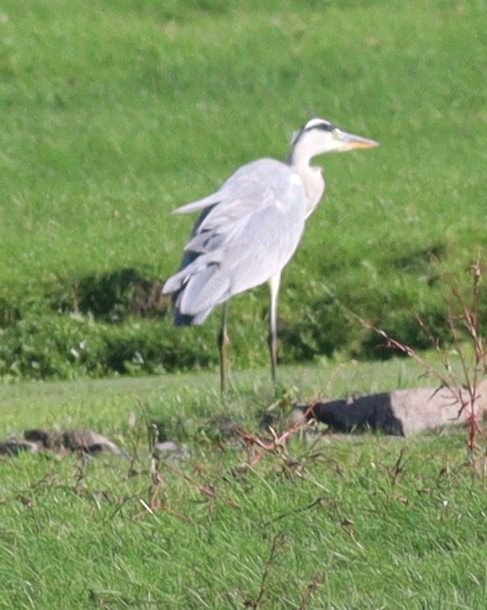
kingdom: Animalia
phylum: Chordata
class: Aves
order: Pelecaniformes
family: Ardeidae
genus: Ardea
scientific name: Ardea cinerea
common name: Grey heron
